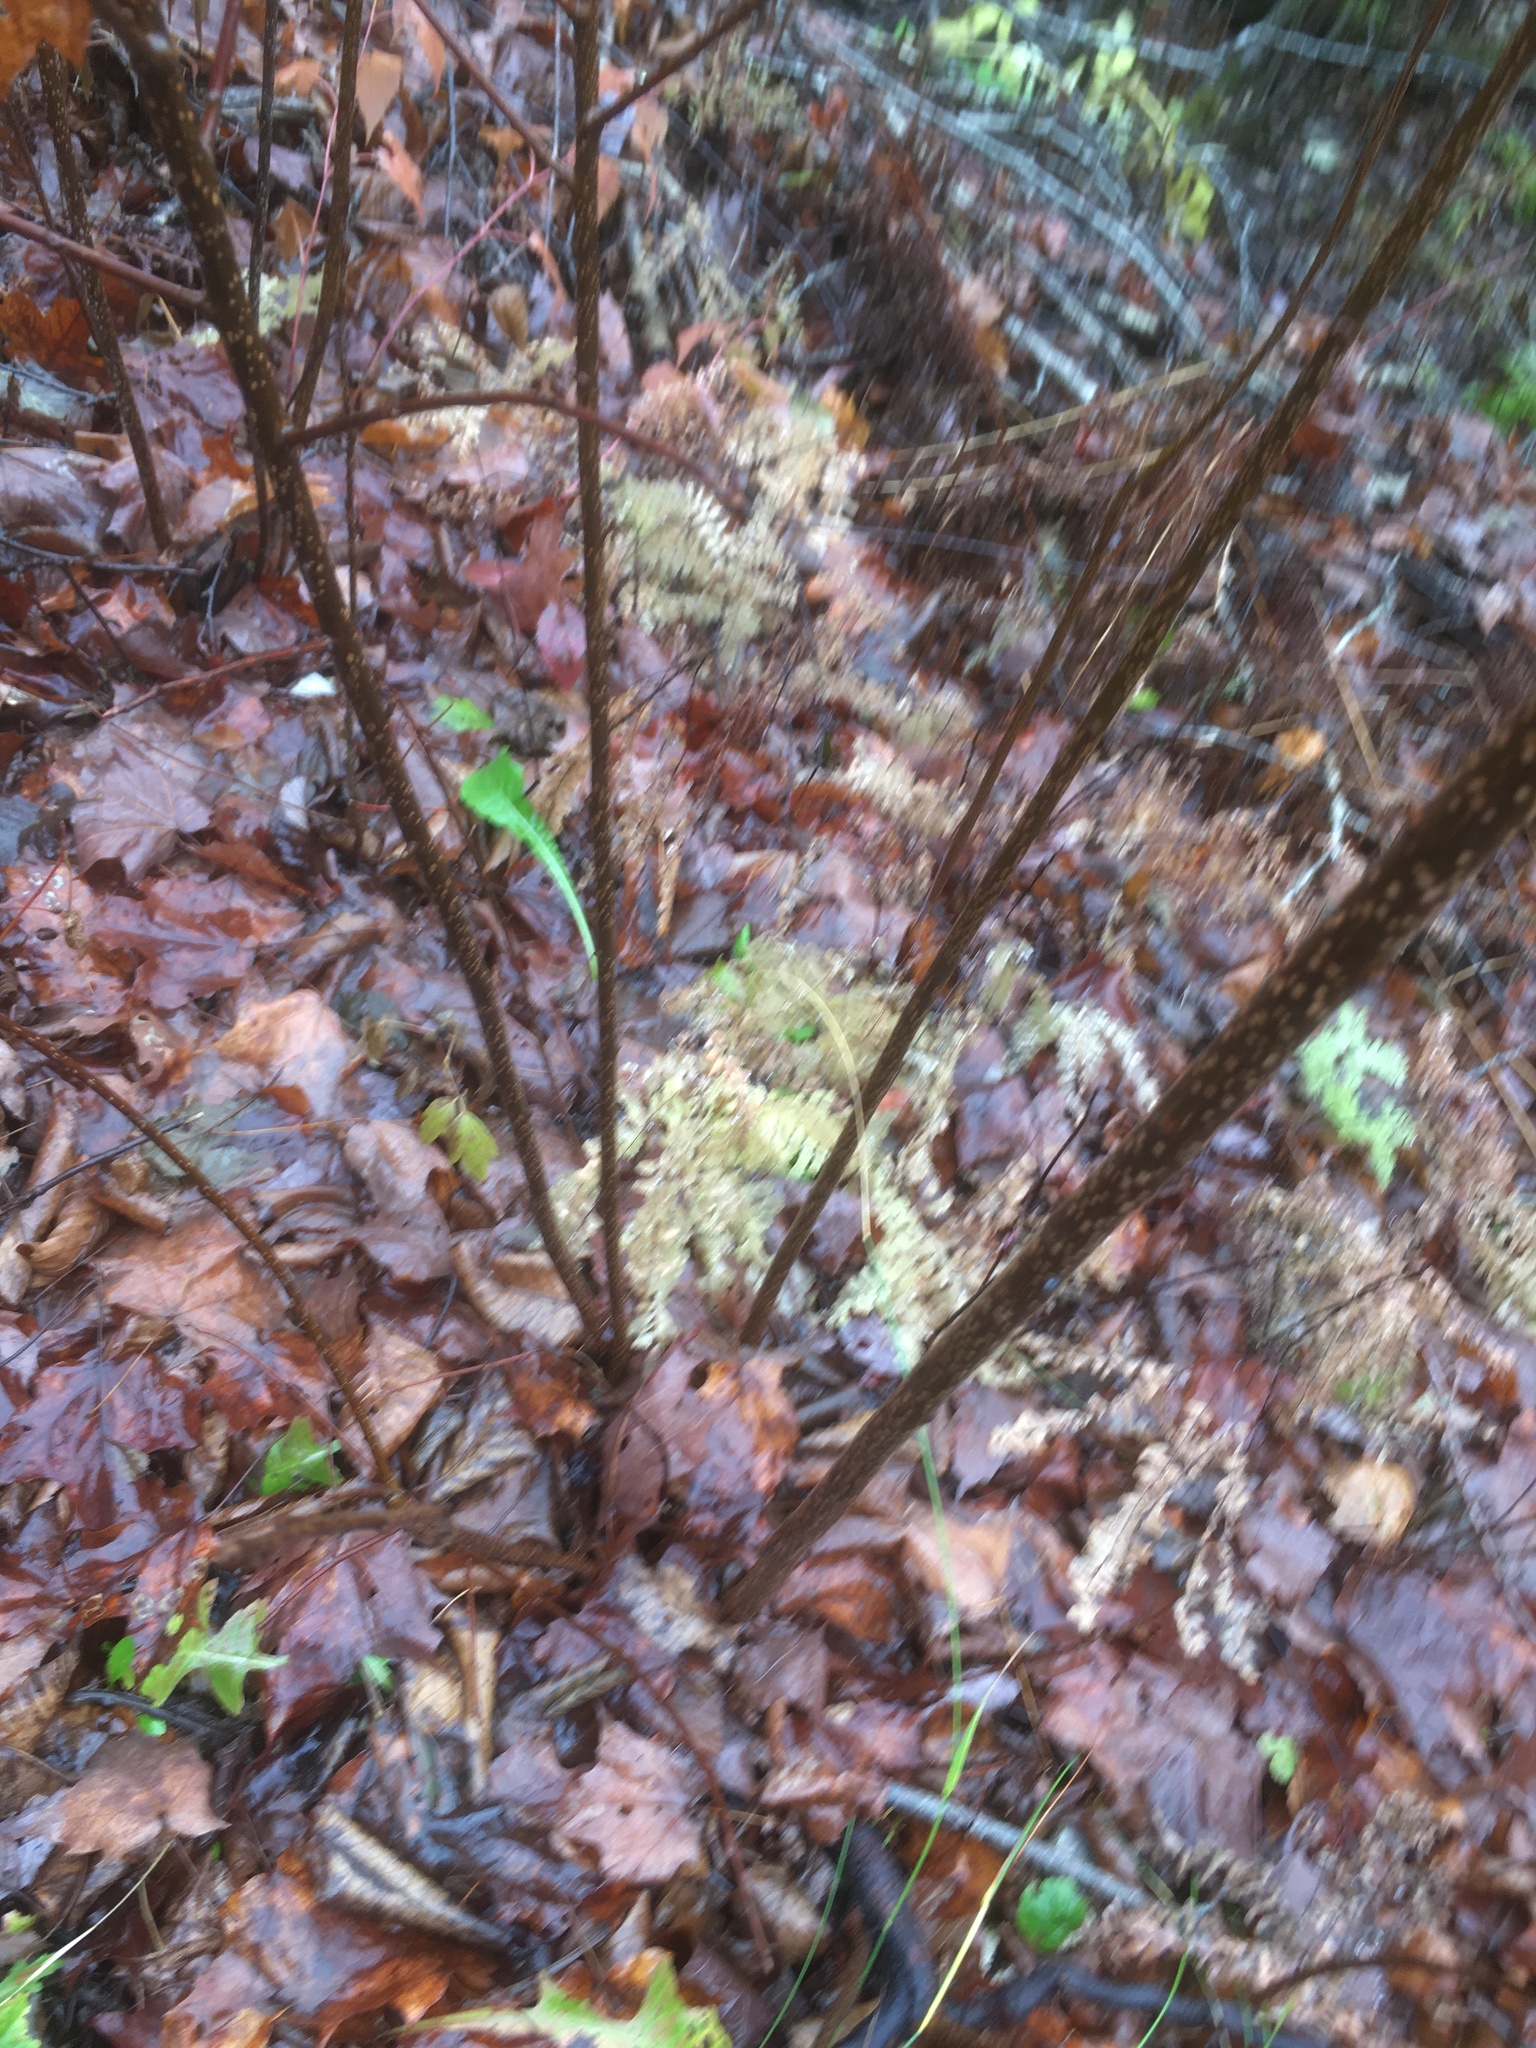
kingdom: Plantae
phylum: Tracheophyta
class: Polypodiopsida
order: Polypodiales
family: Pteridaceae
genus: Adiantum
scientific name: Adiantum pedatum
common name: Five-finger fern
